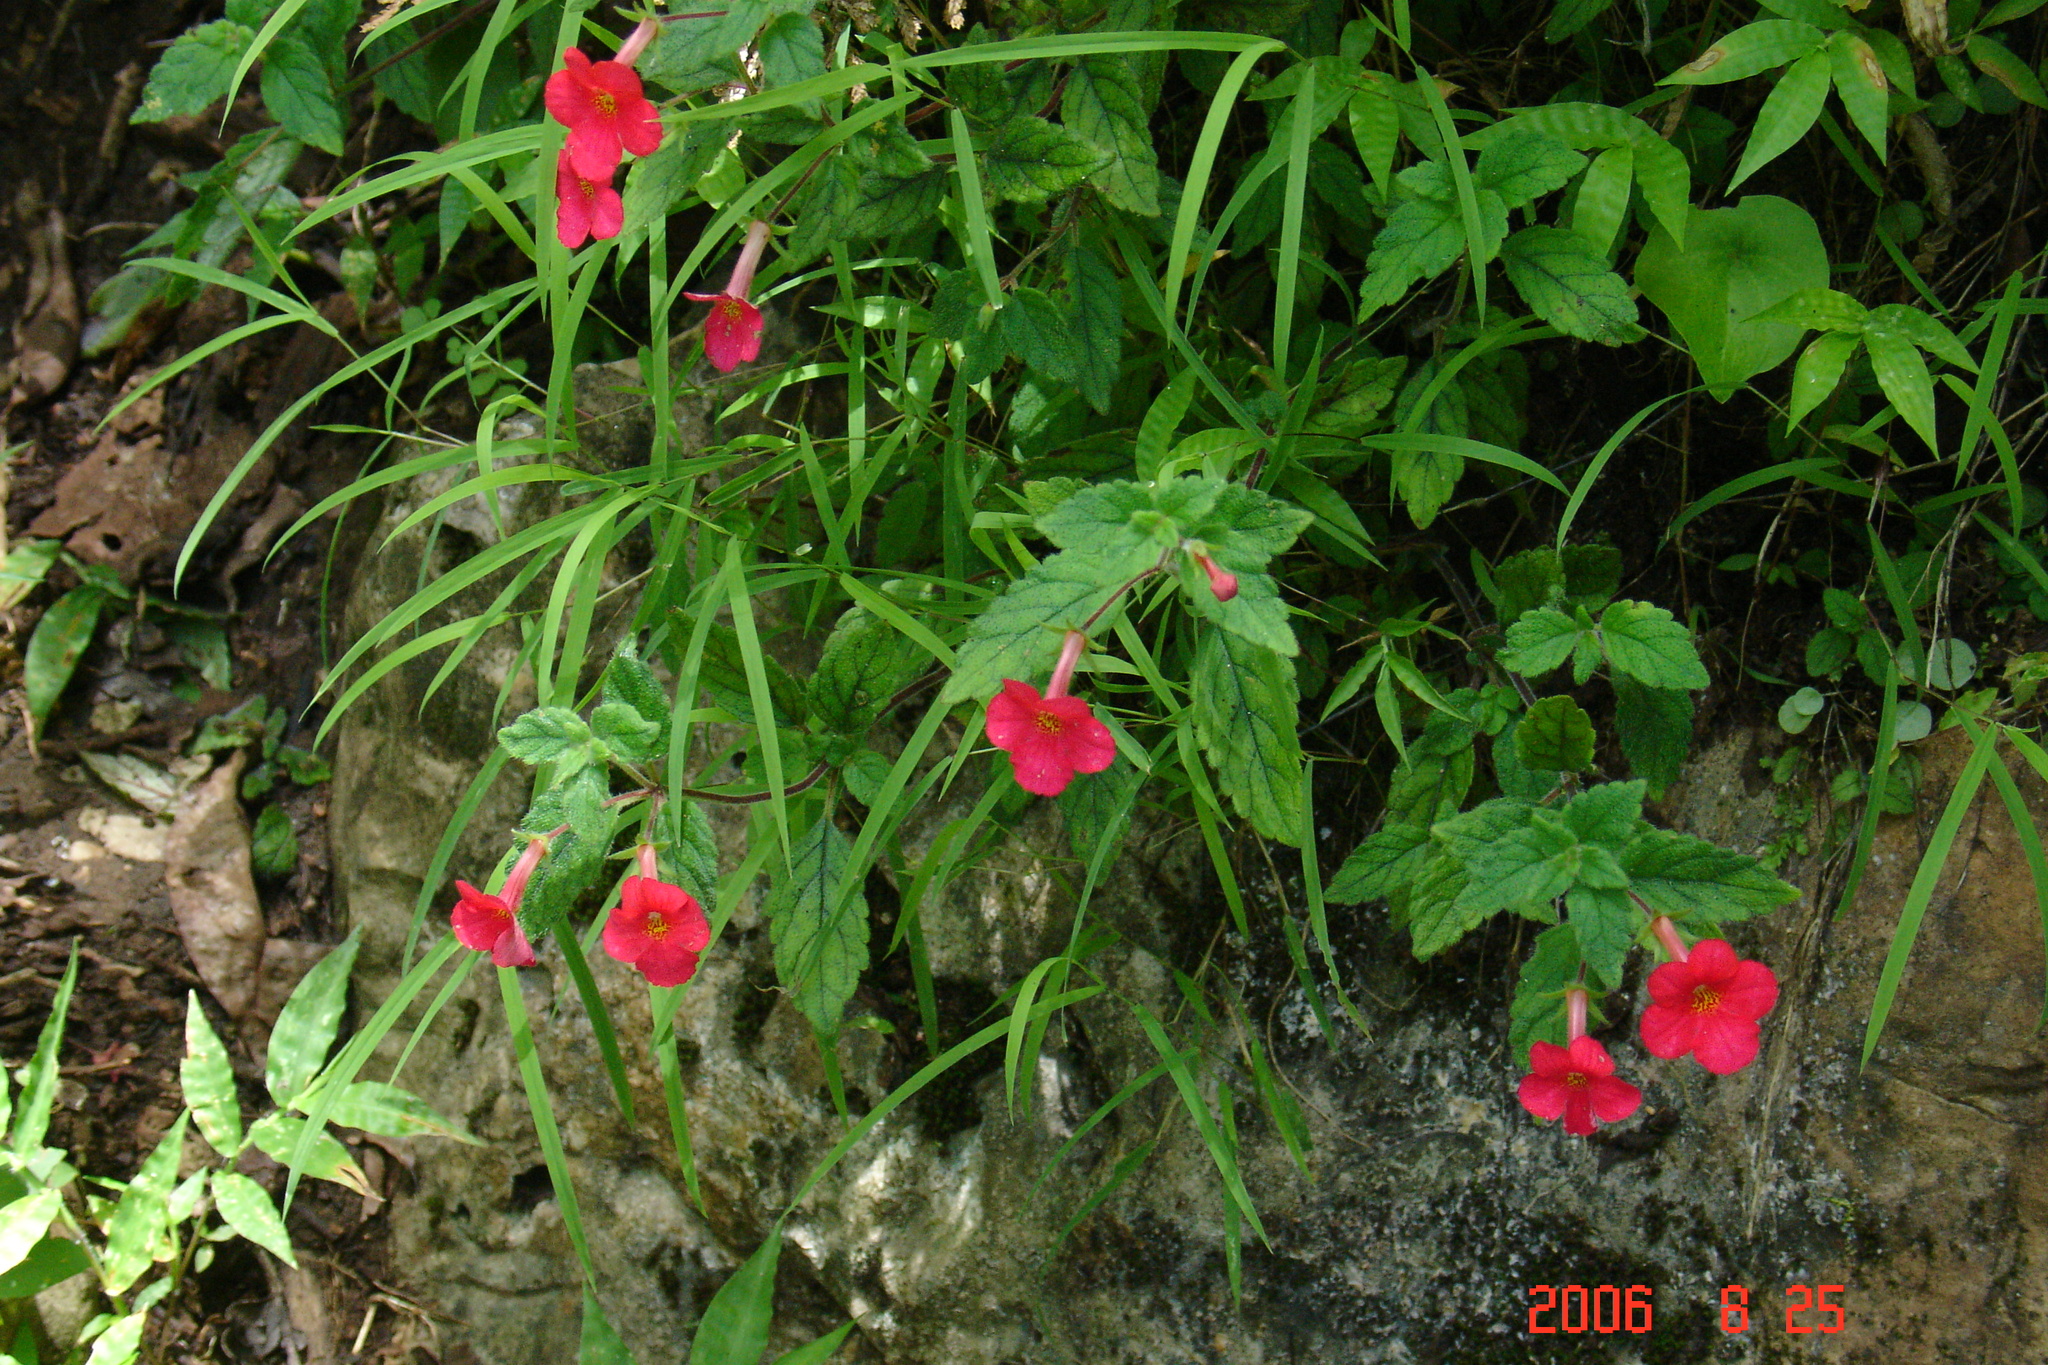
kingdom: Plantae
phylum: Tracheophyta
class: Magnoliopsida
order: Lamiales
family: Gesneriaceae
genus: Achimenes
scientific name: Achimenes erecta
